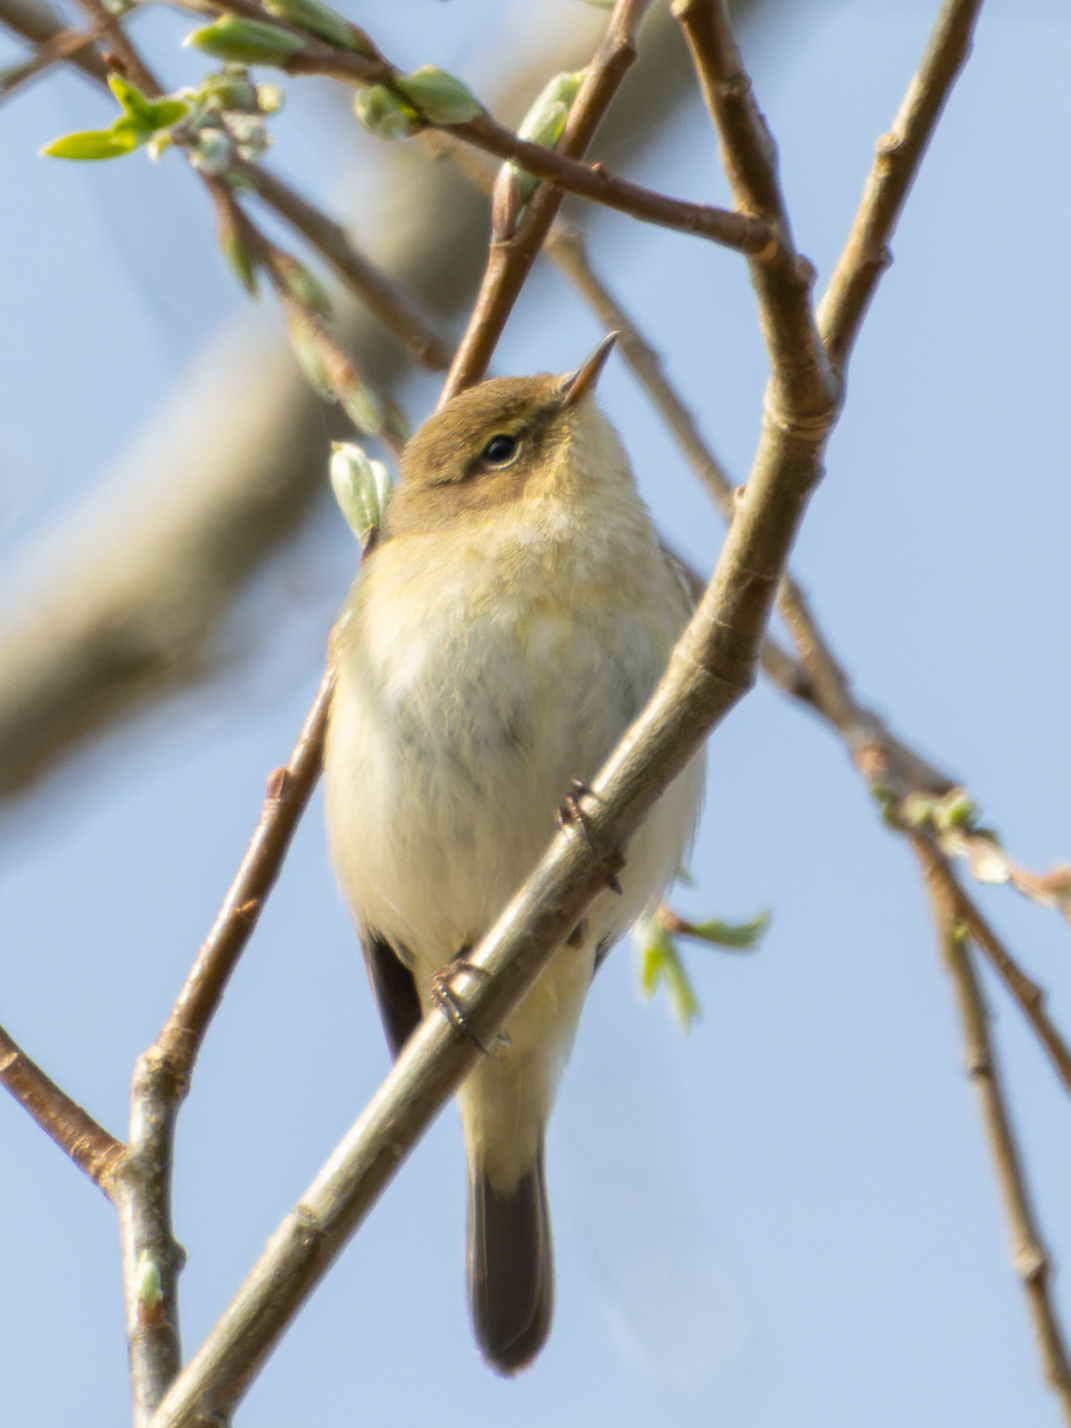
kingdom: Animalia
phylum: Chordata
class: Aves
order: Passeriformes
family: Phylloscopidae
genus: Phylloscopus
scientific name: Phylloscopus collybita
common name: Common chiffchaff
